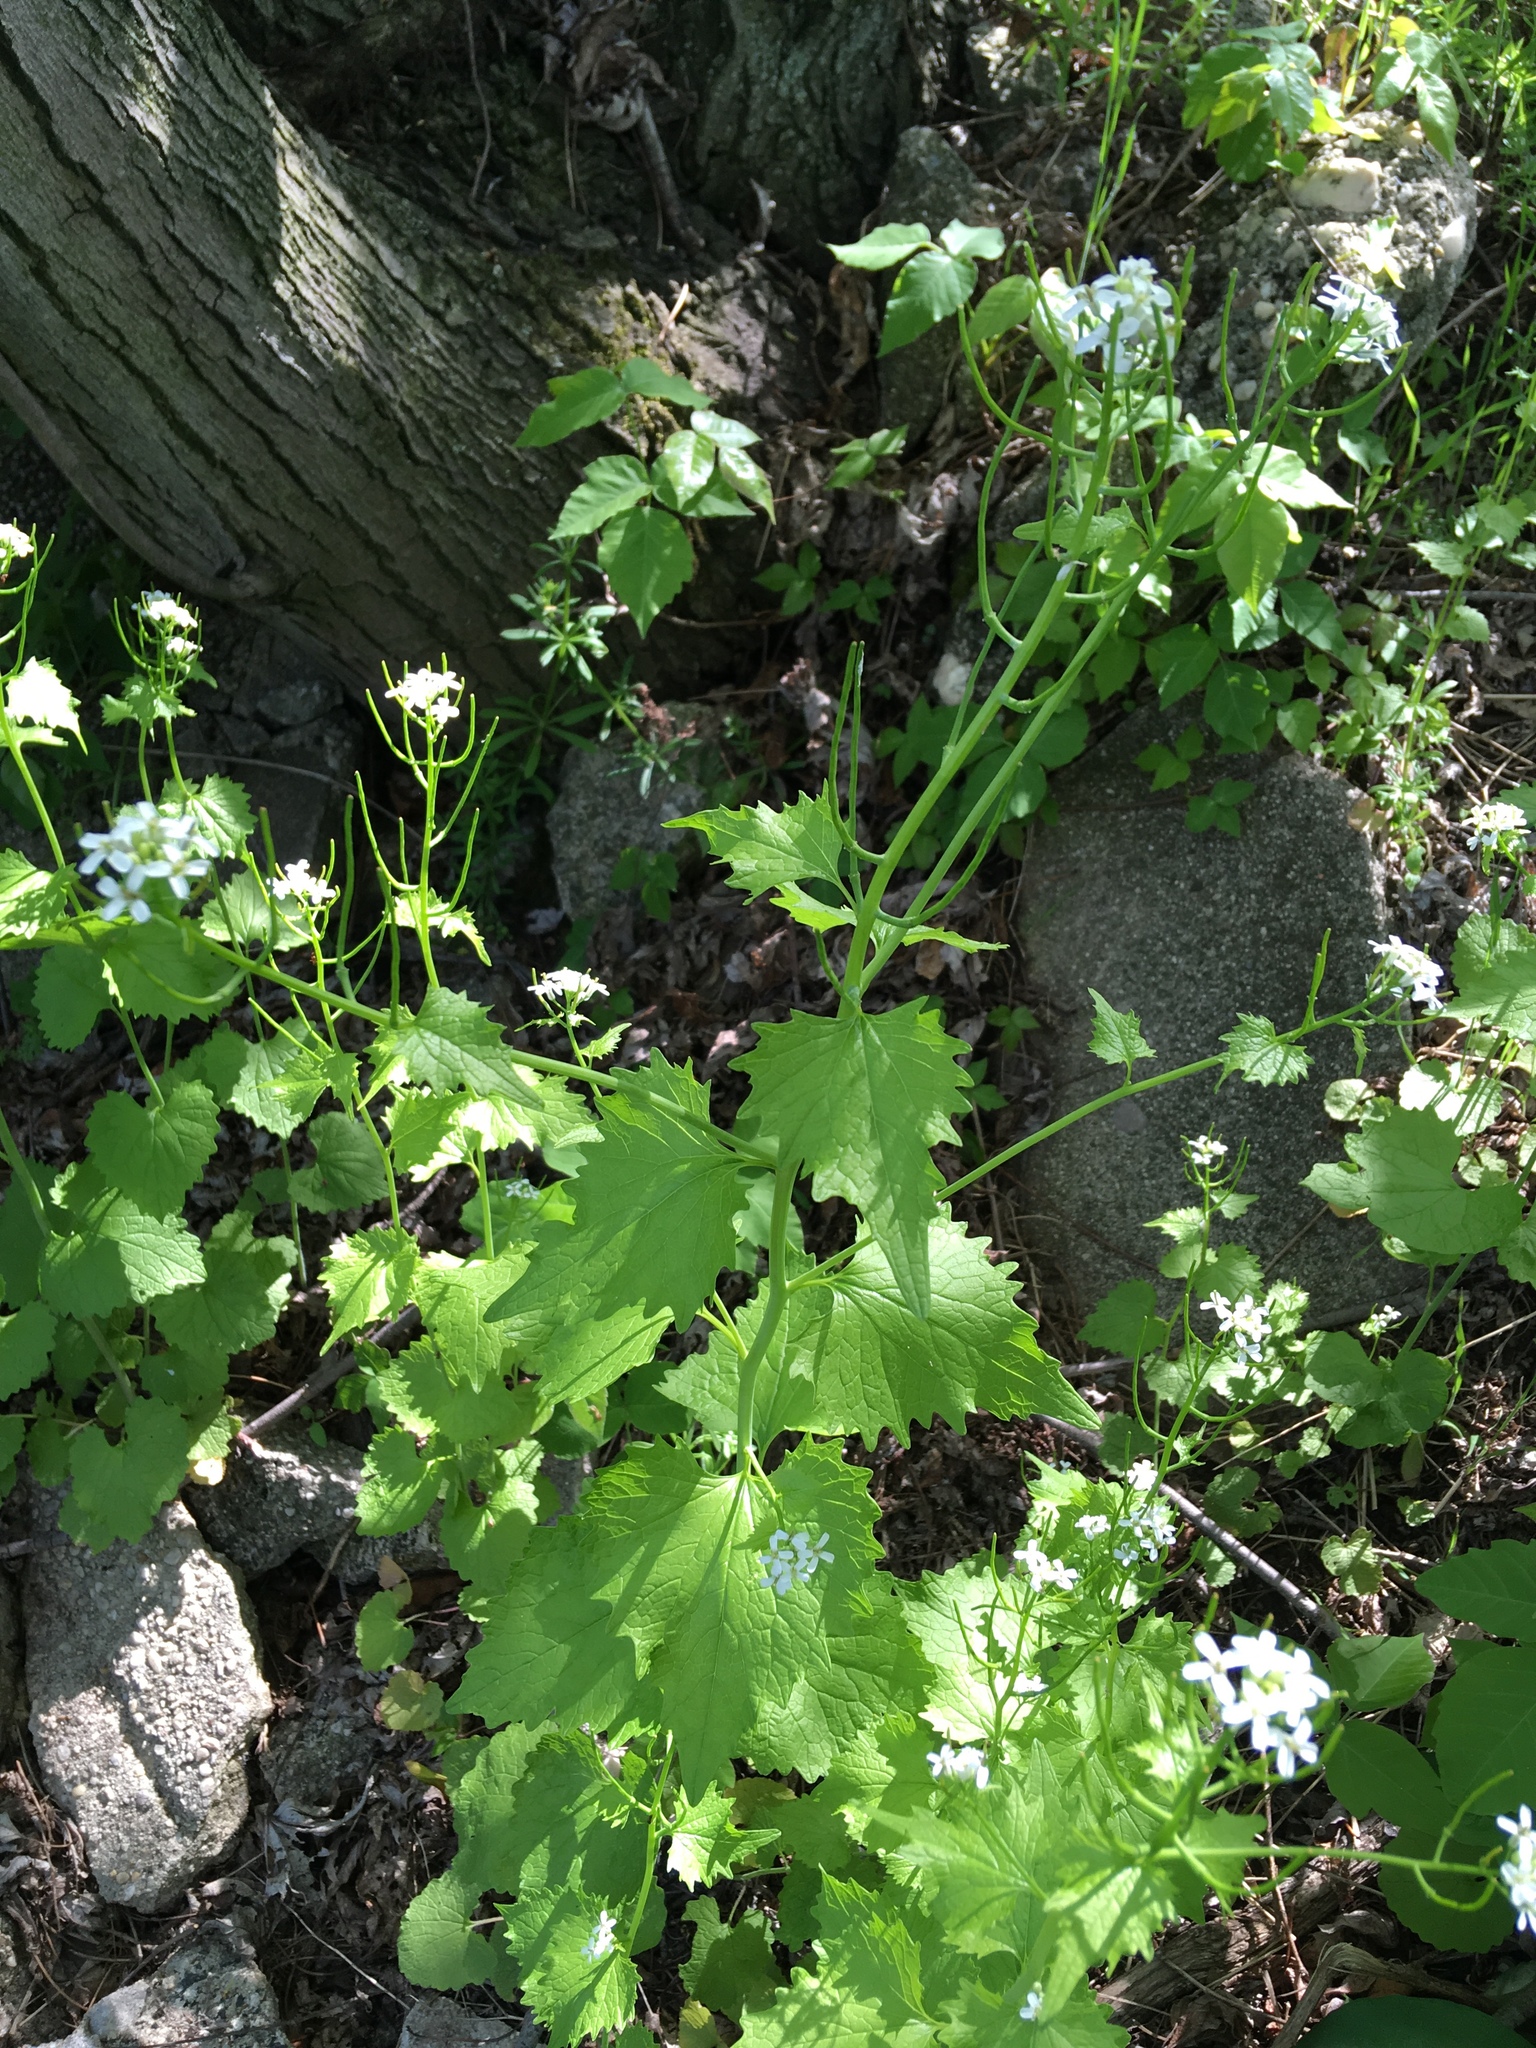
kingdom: Plantae
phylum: Tracheophyta
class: Magnoliopsida
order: Brassicales
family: Brassicaceae
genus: Alliaria
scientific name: Alliaria petiolata
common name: Garlic mustard
